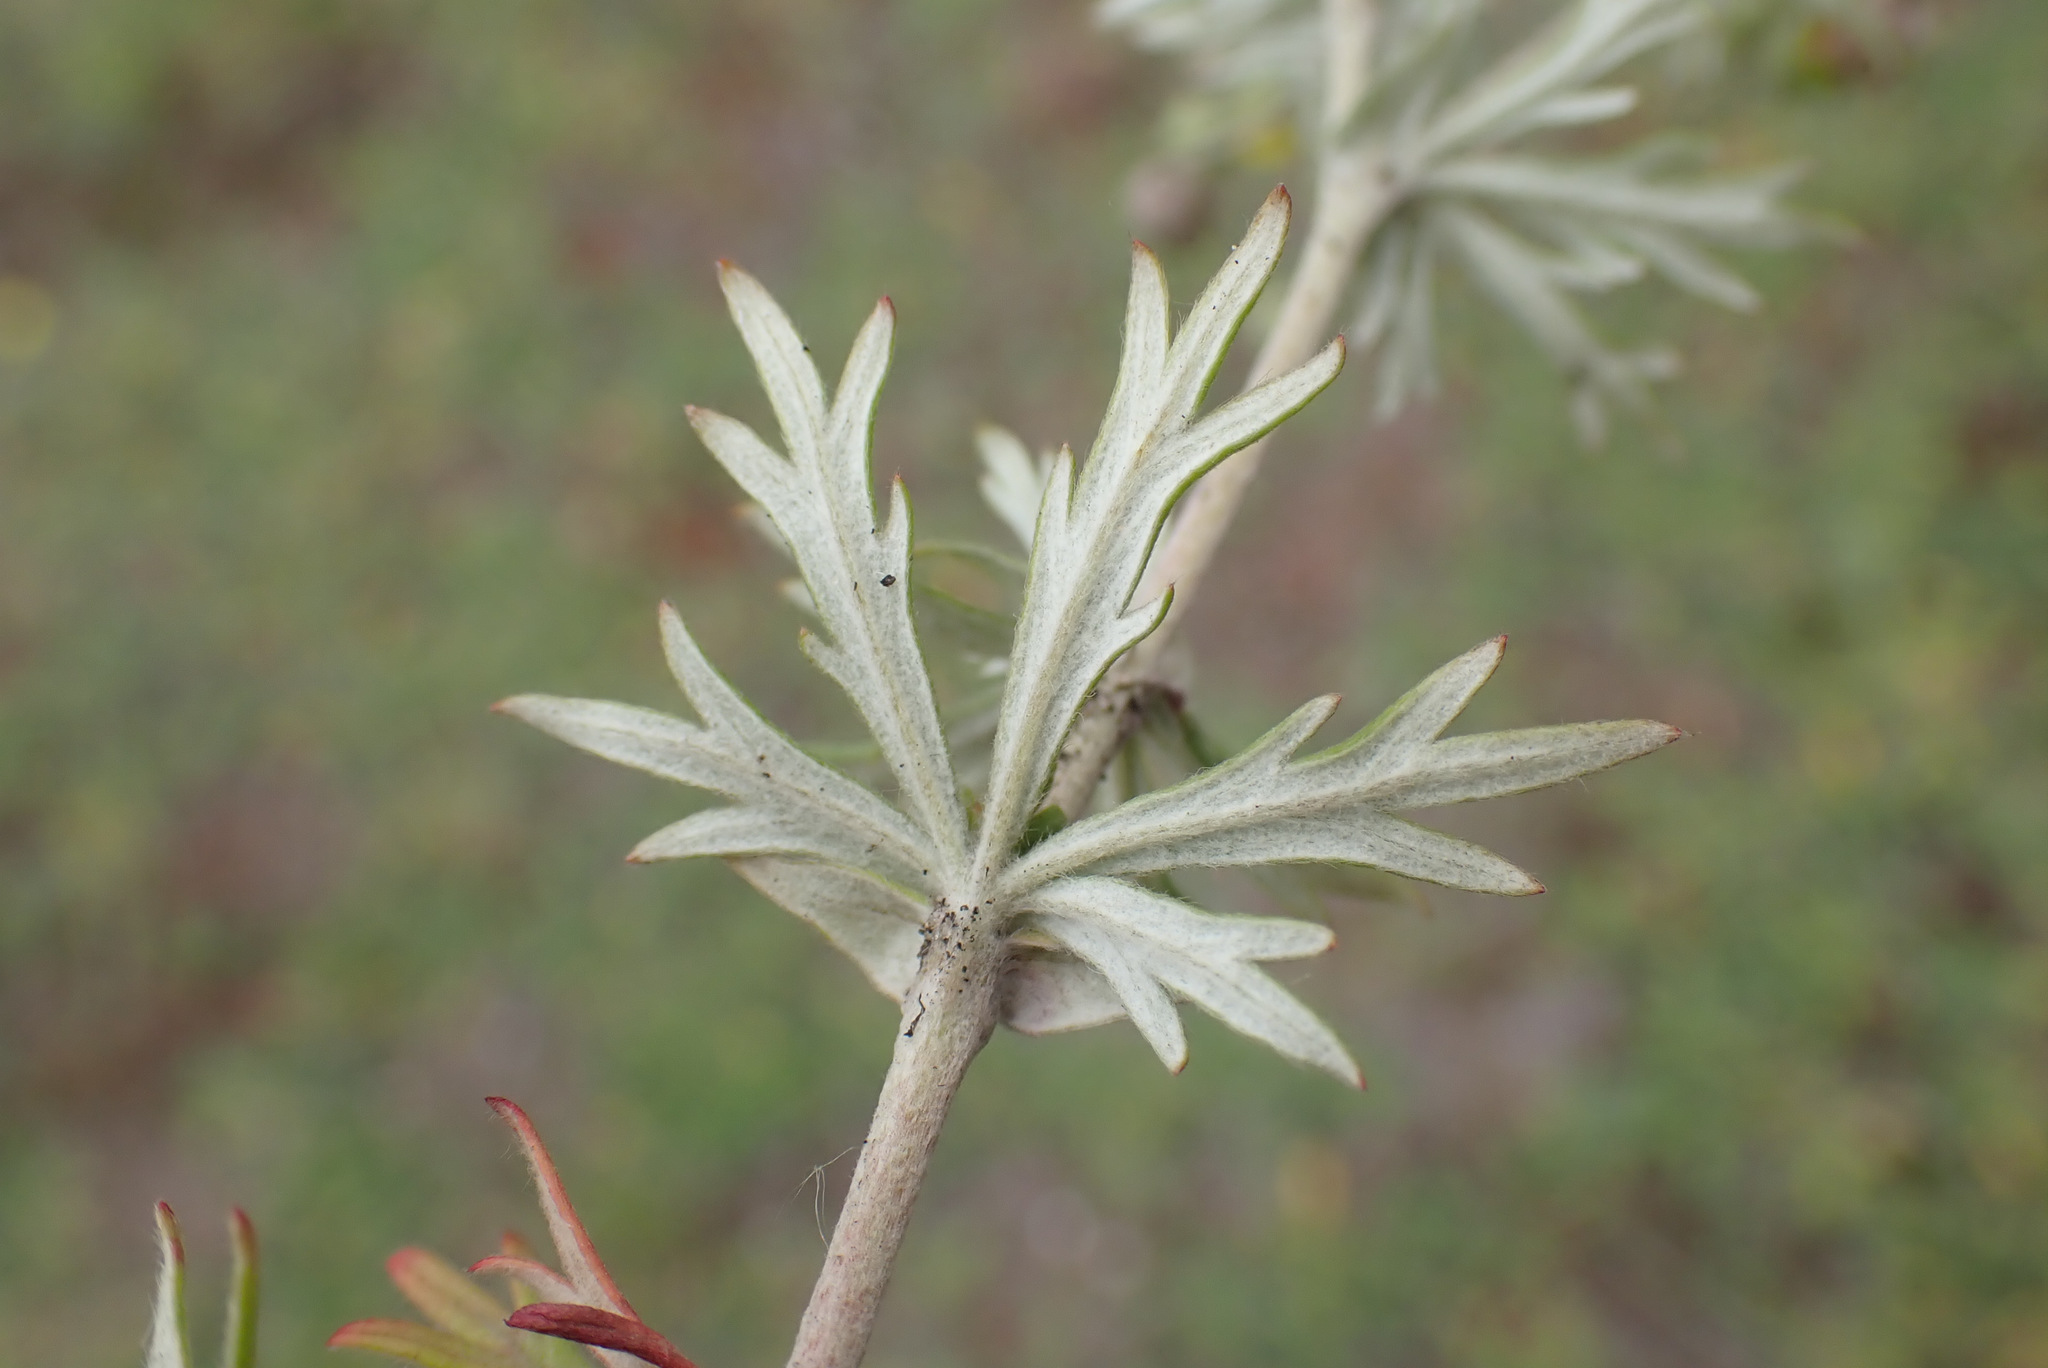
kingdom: Plantae
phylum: Tracheophyta
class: Magnoliopsida
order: Rosales
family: Rosaceae
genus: Potentilla
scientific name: Potentilla argentea
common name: Hoary cinquefoil
